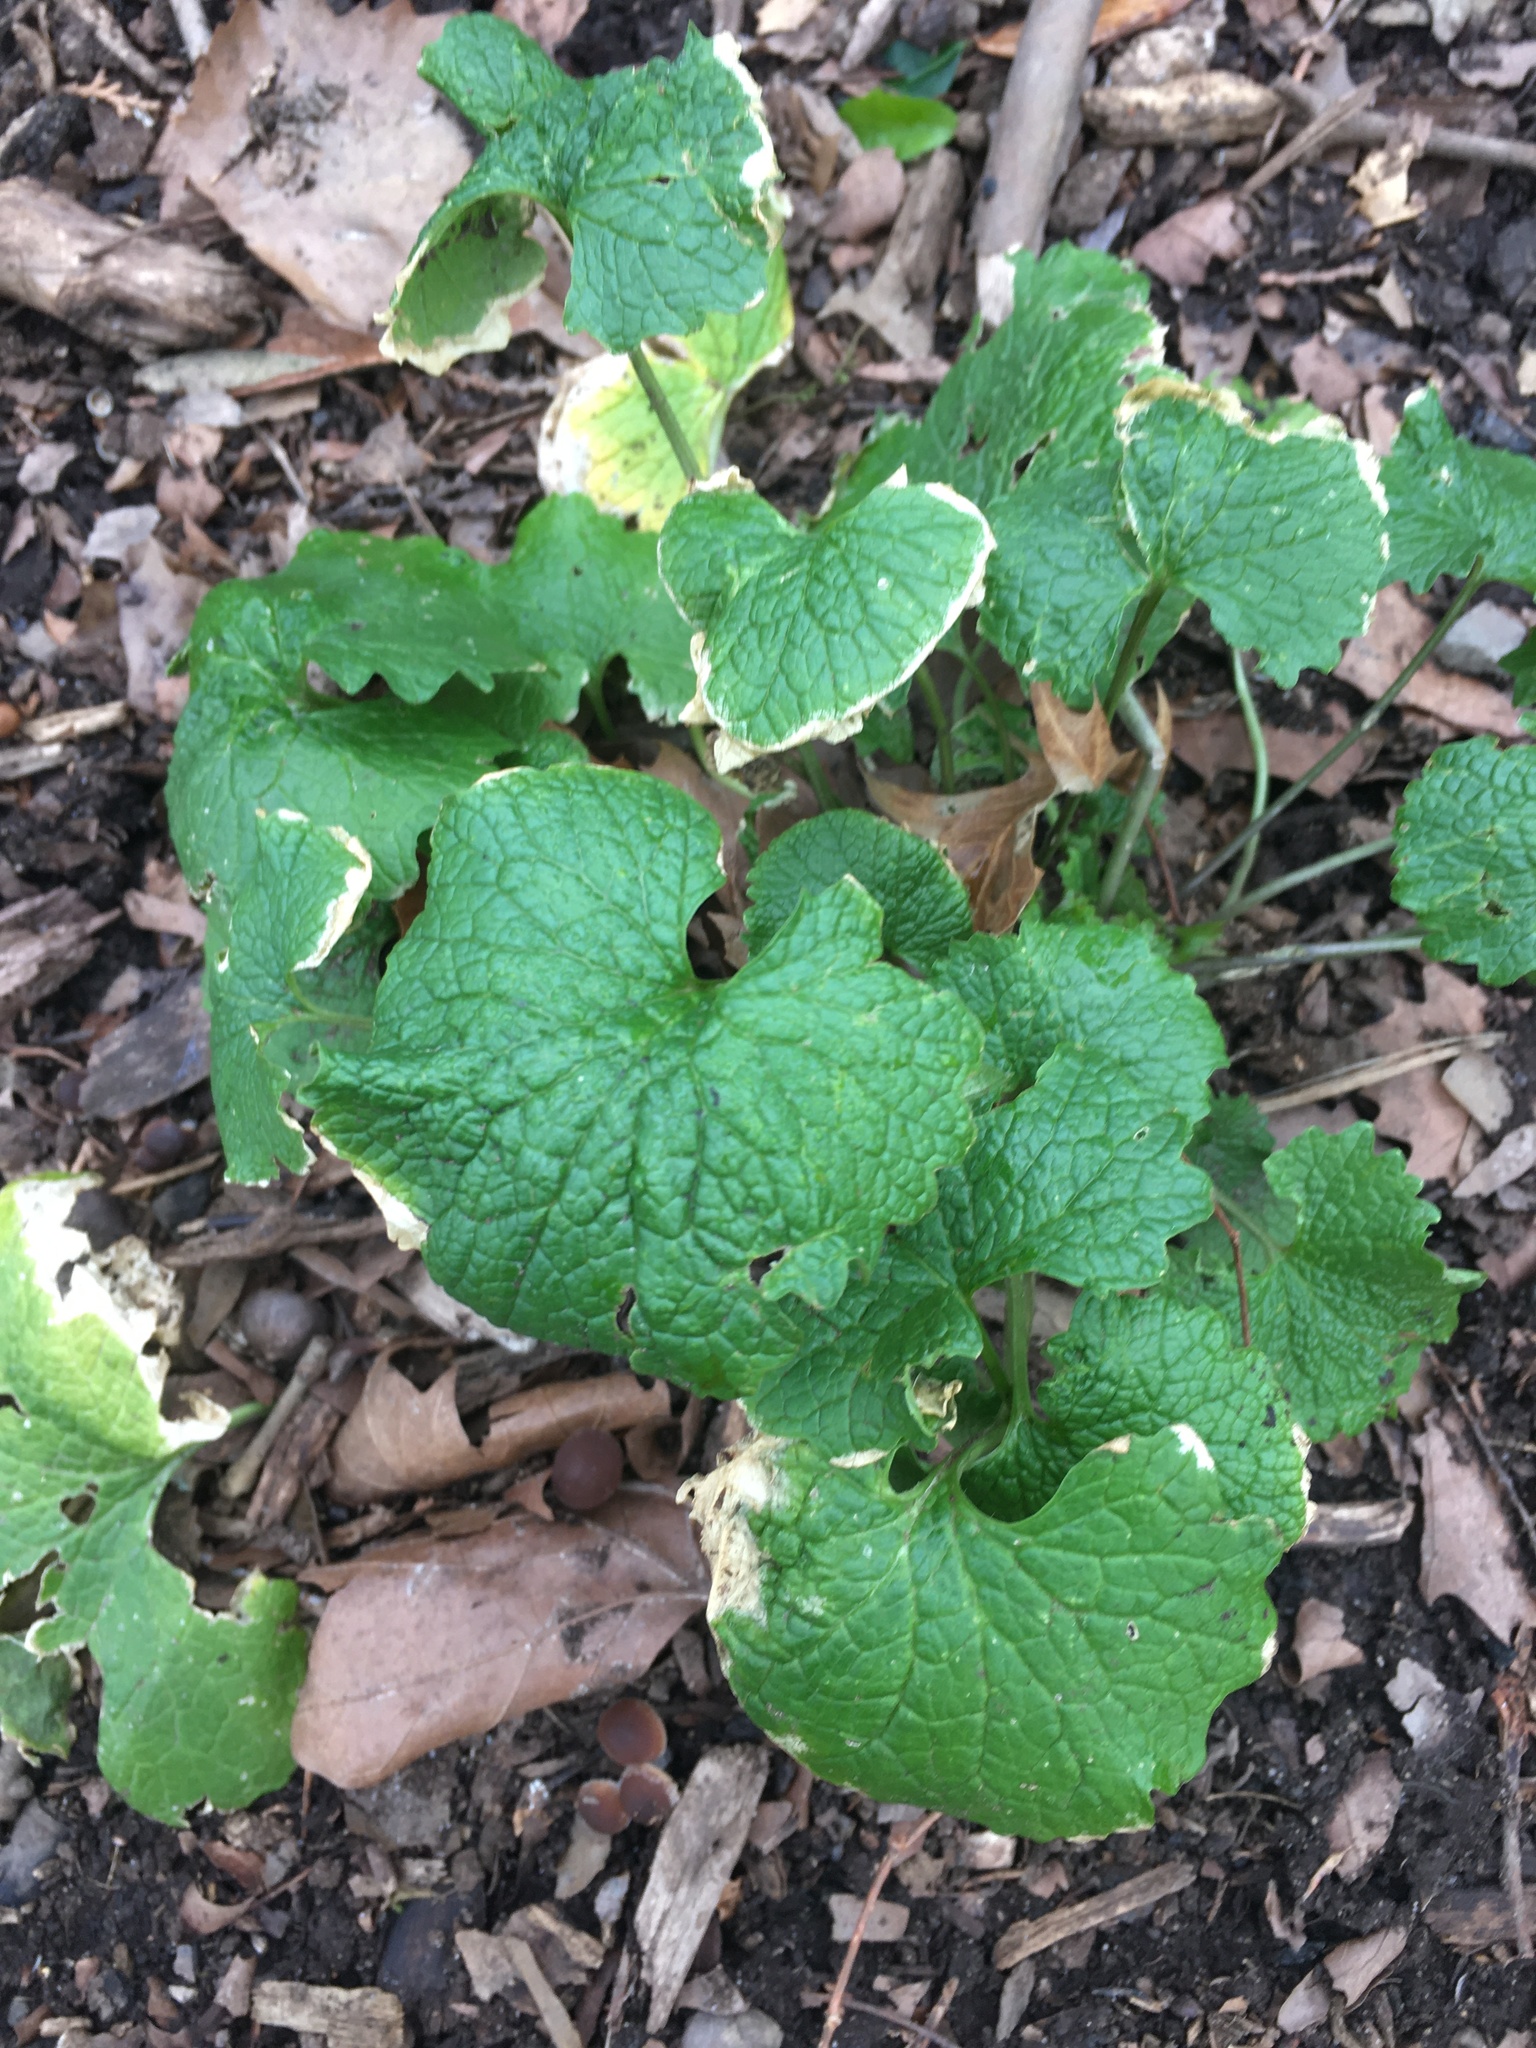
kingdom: Plantae
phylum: Tracheophyta
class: Magnoliopsida
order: Brassicales
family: Brassicaceae
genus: Alliaria
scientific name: Alliaria petiolata
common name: Garlic mustard
